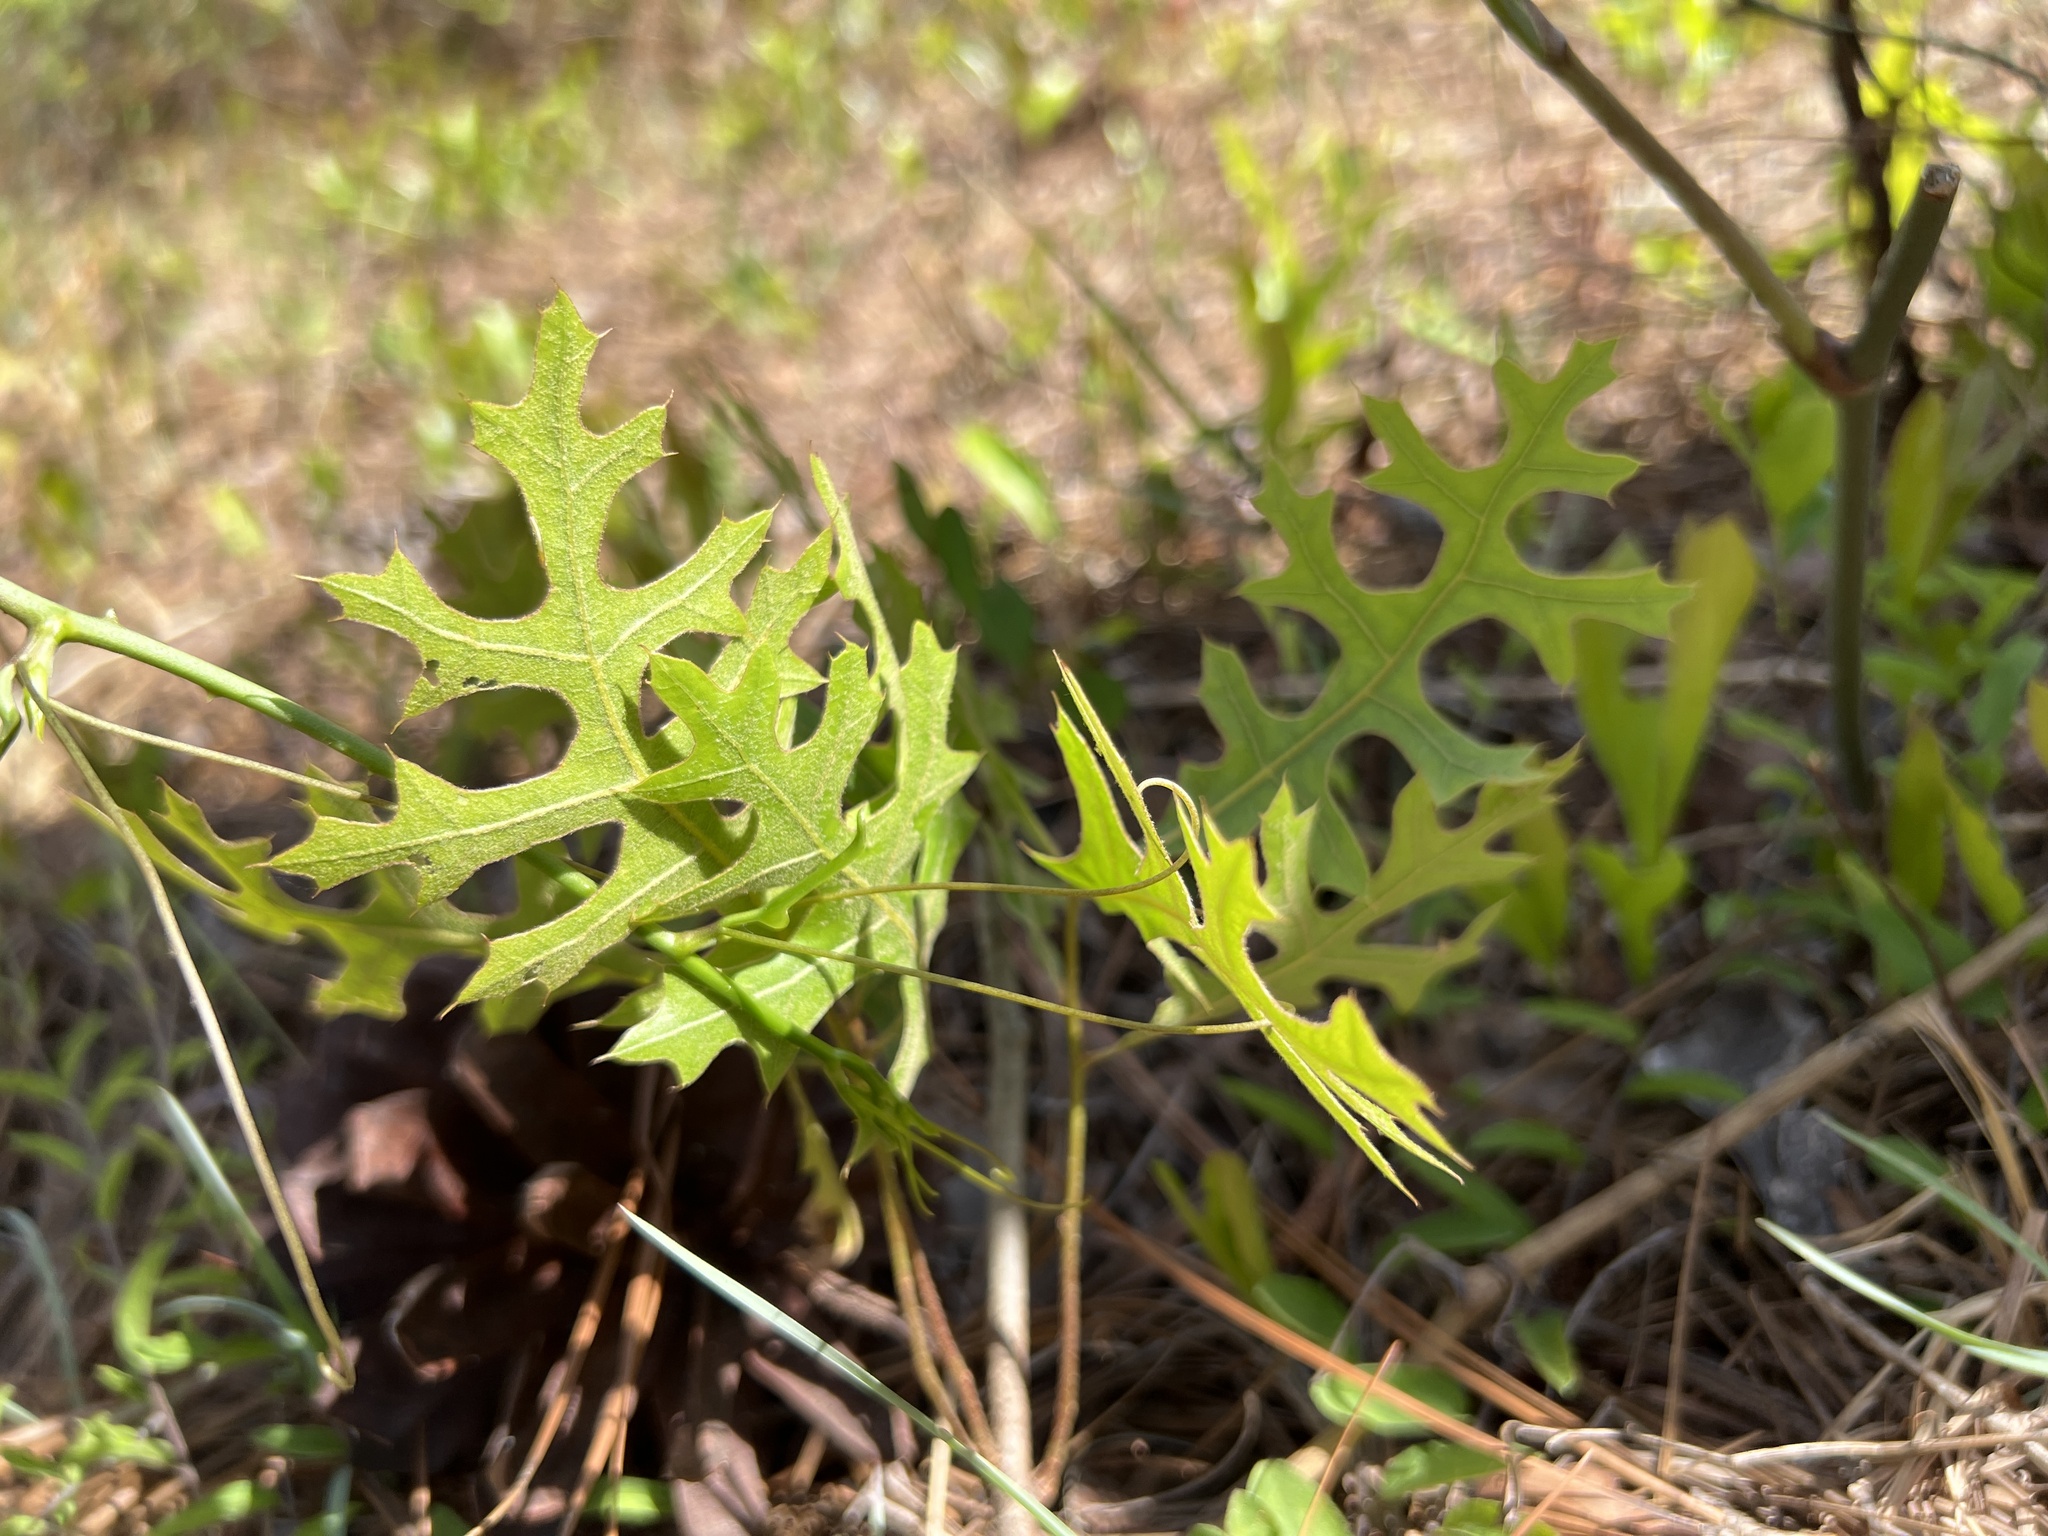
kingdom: Plantae
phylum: Tracheophyta
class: Magnoliopsida
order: Fagales
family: Fagaceae
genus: Quercus
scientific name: Quercus laevis
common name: Turkey oak
